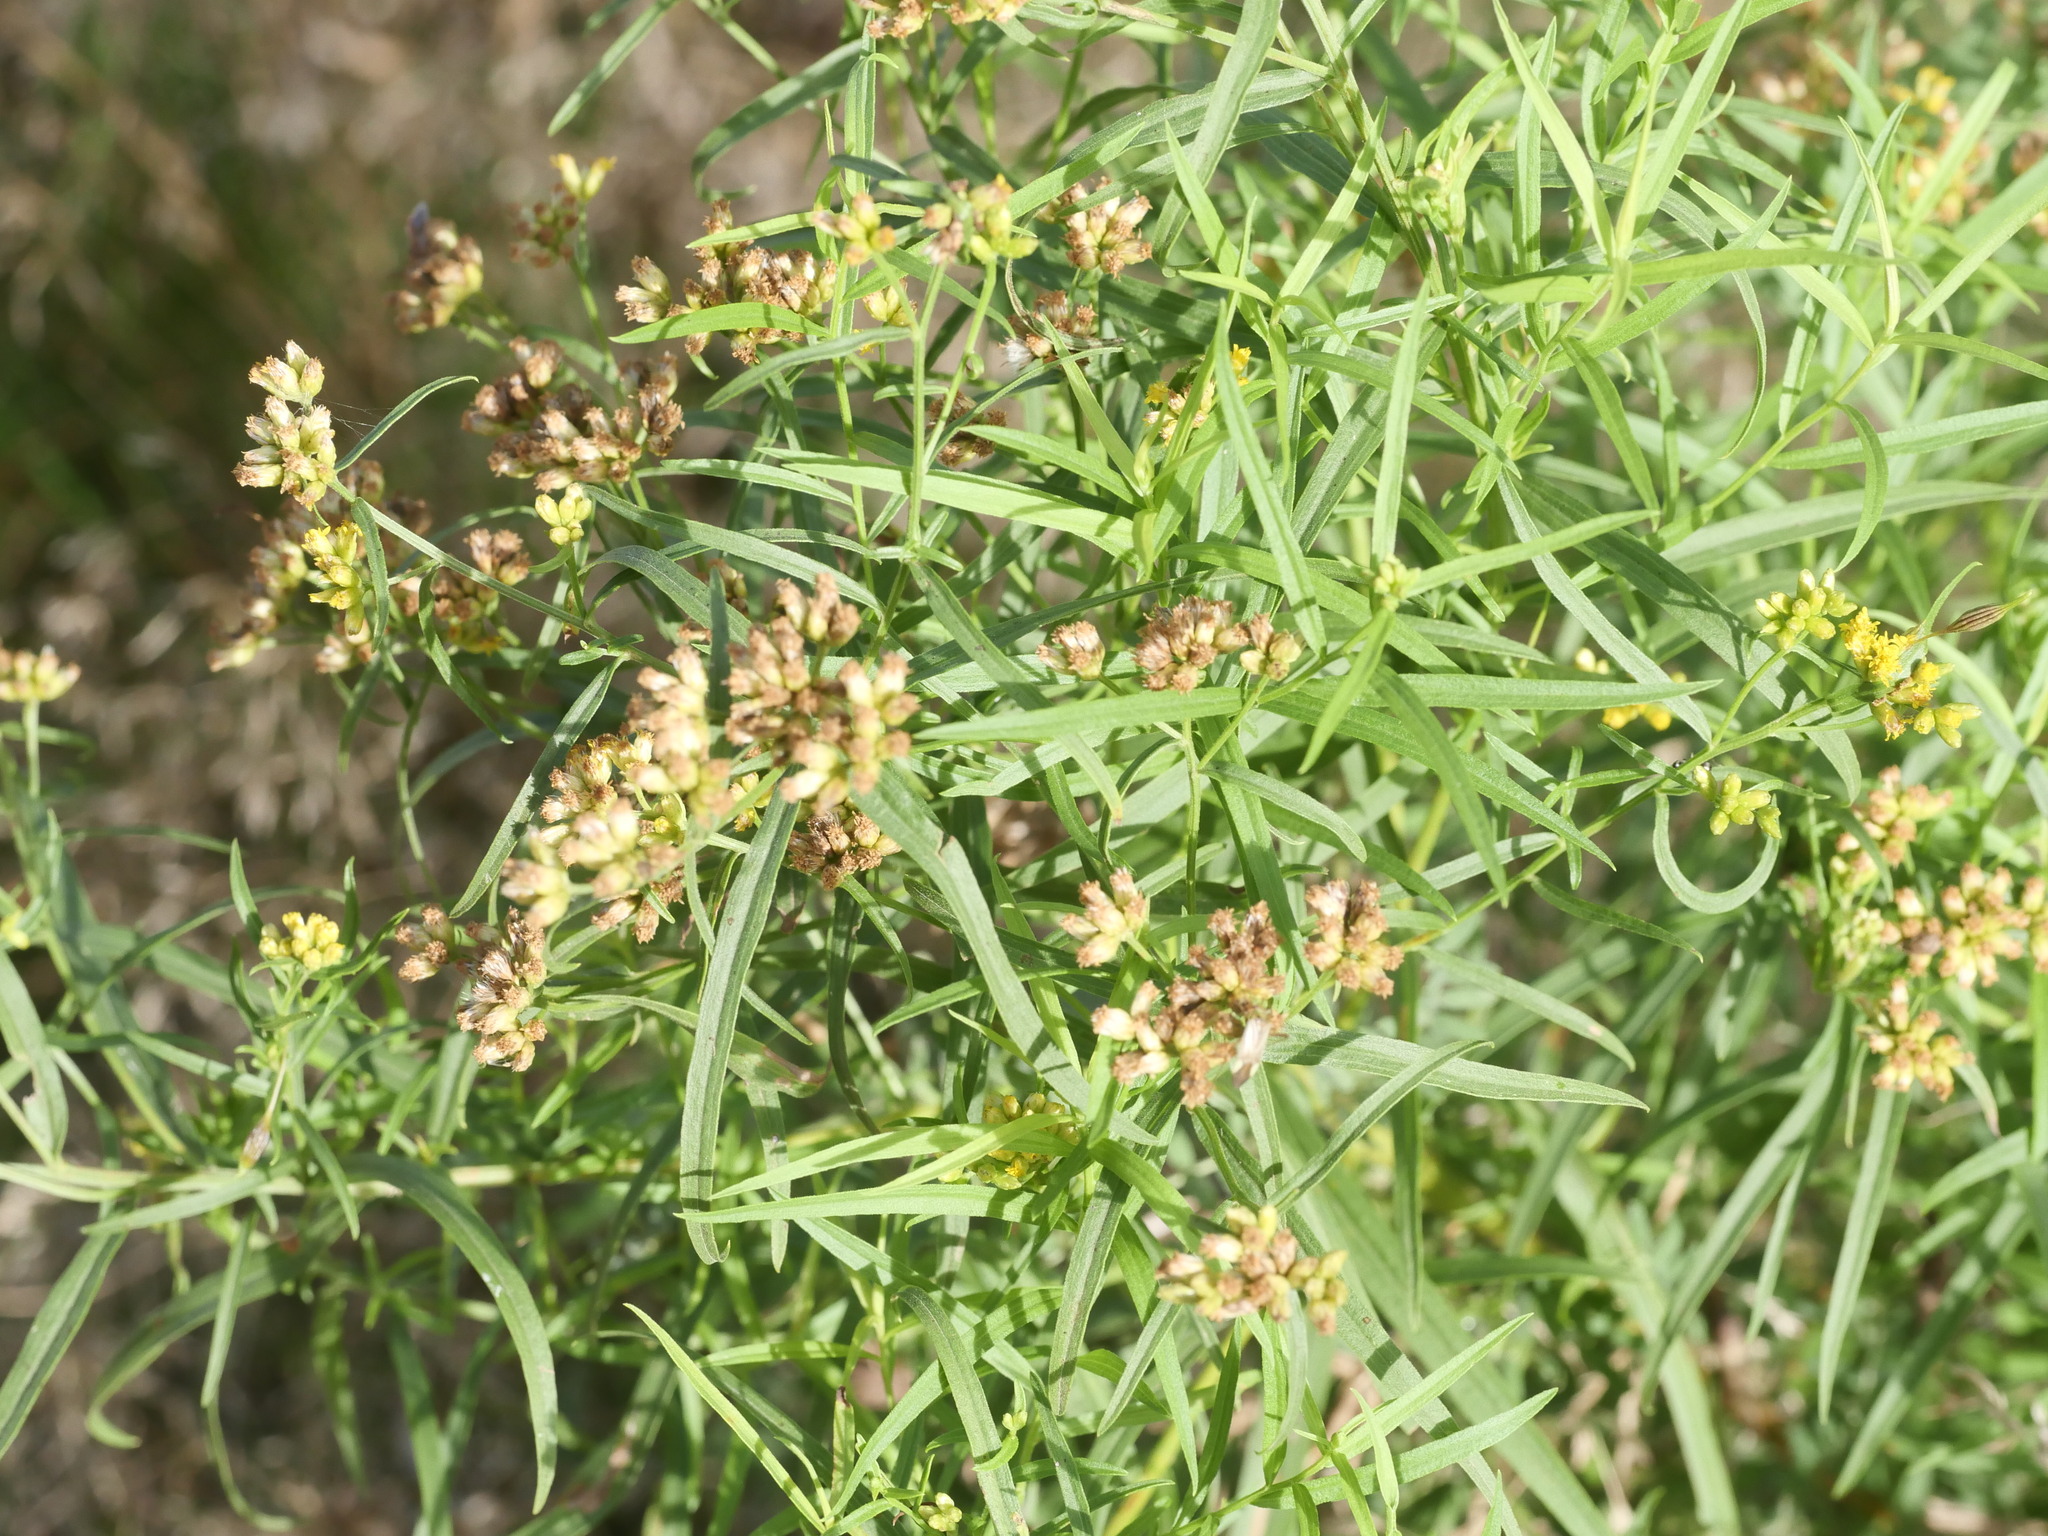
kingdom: Plantae
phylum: Tracheophyta
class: Magnoliopsida
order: Asterales
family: Asteraceae
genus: Euthamia
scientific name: Euthamia graminifolia
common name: Common goldentop
